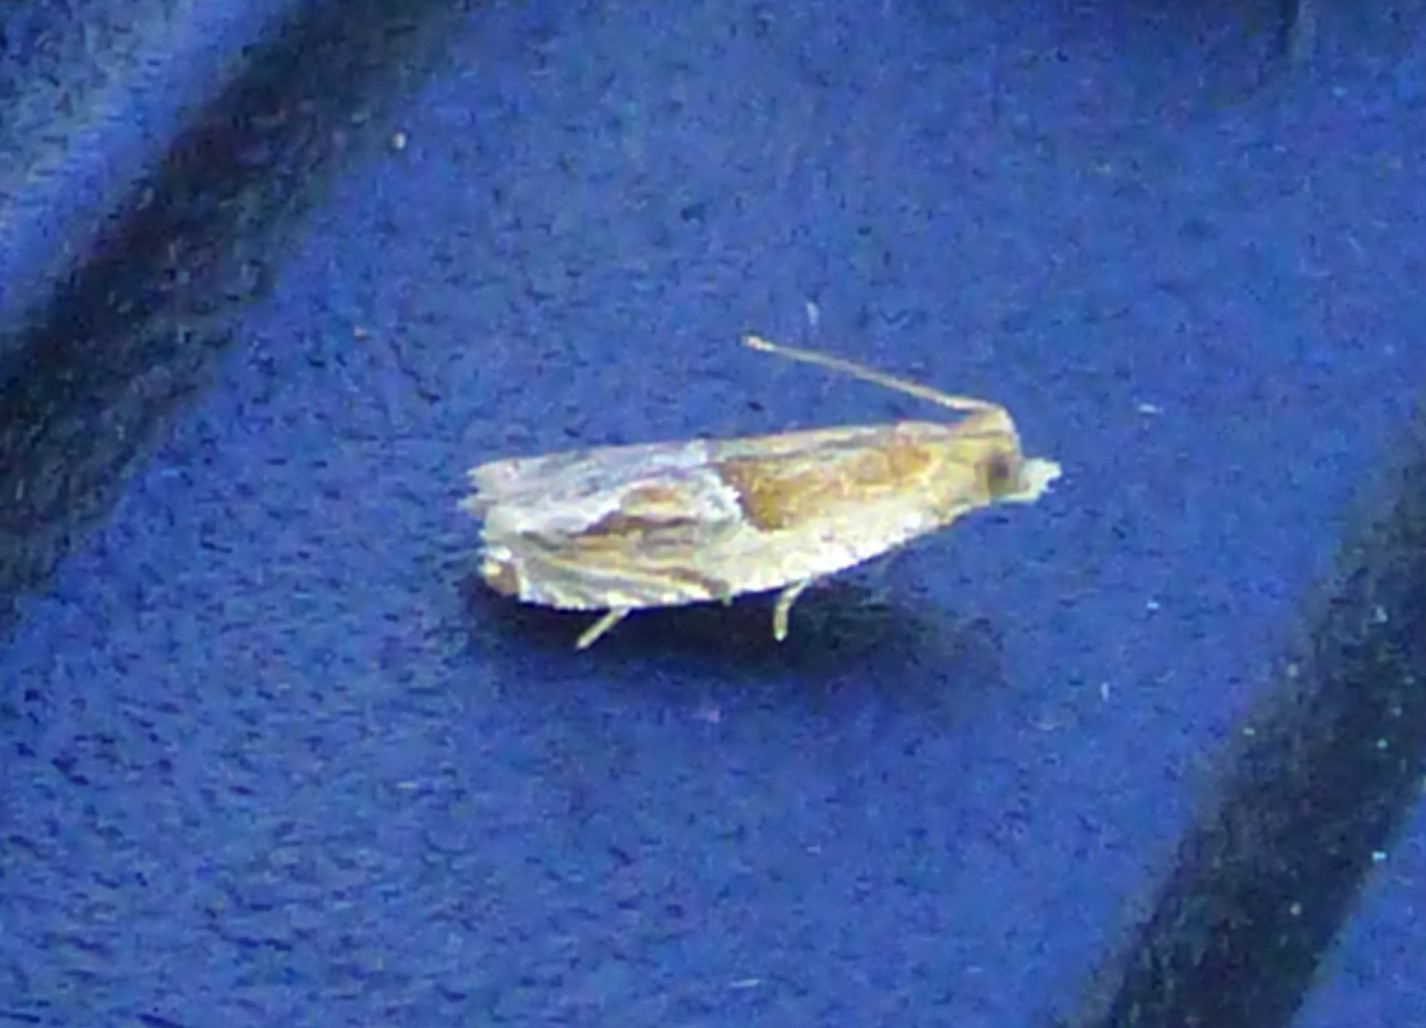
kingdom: Animalia
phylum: Arthropoda
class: Insecta
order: Lepidoptera
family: Tortricidae
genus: Ancylis
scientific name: Ancylis comptana
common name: Little roller
